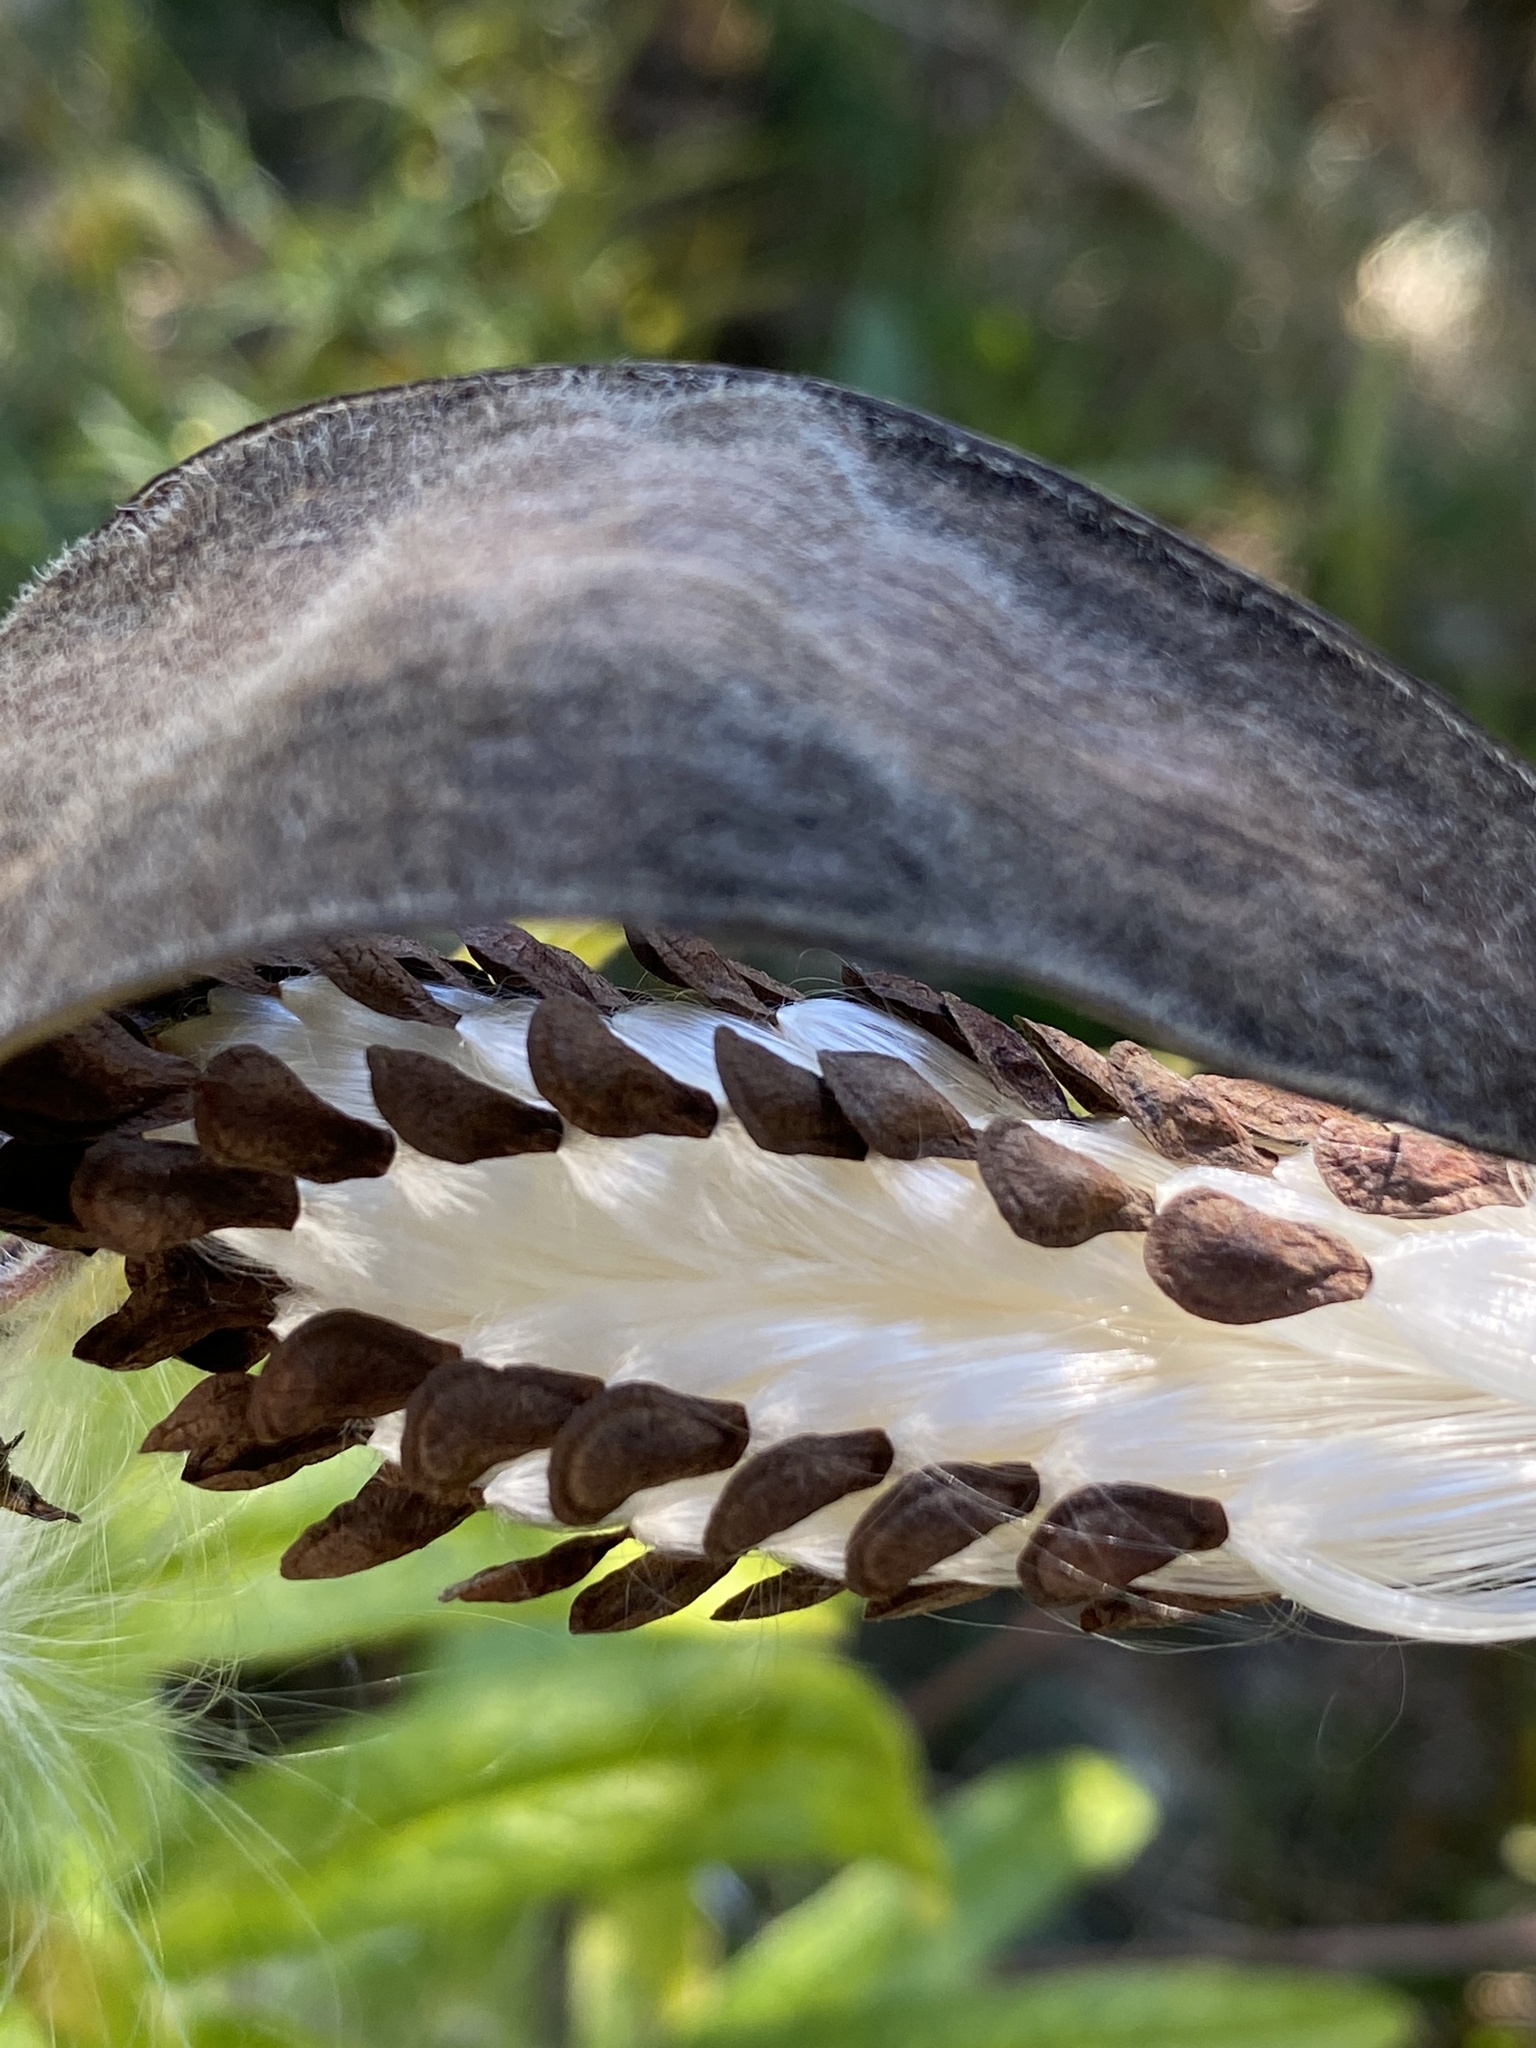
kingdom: Plantae
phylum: Tracheophyta
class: Magnoliopsida
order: Gentianales
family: Apocynaceae
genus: Asclepias
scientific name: Asclepias tuberosa
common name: Butterfly milkweed
